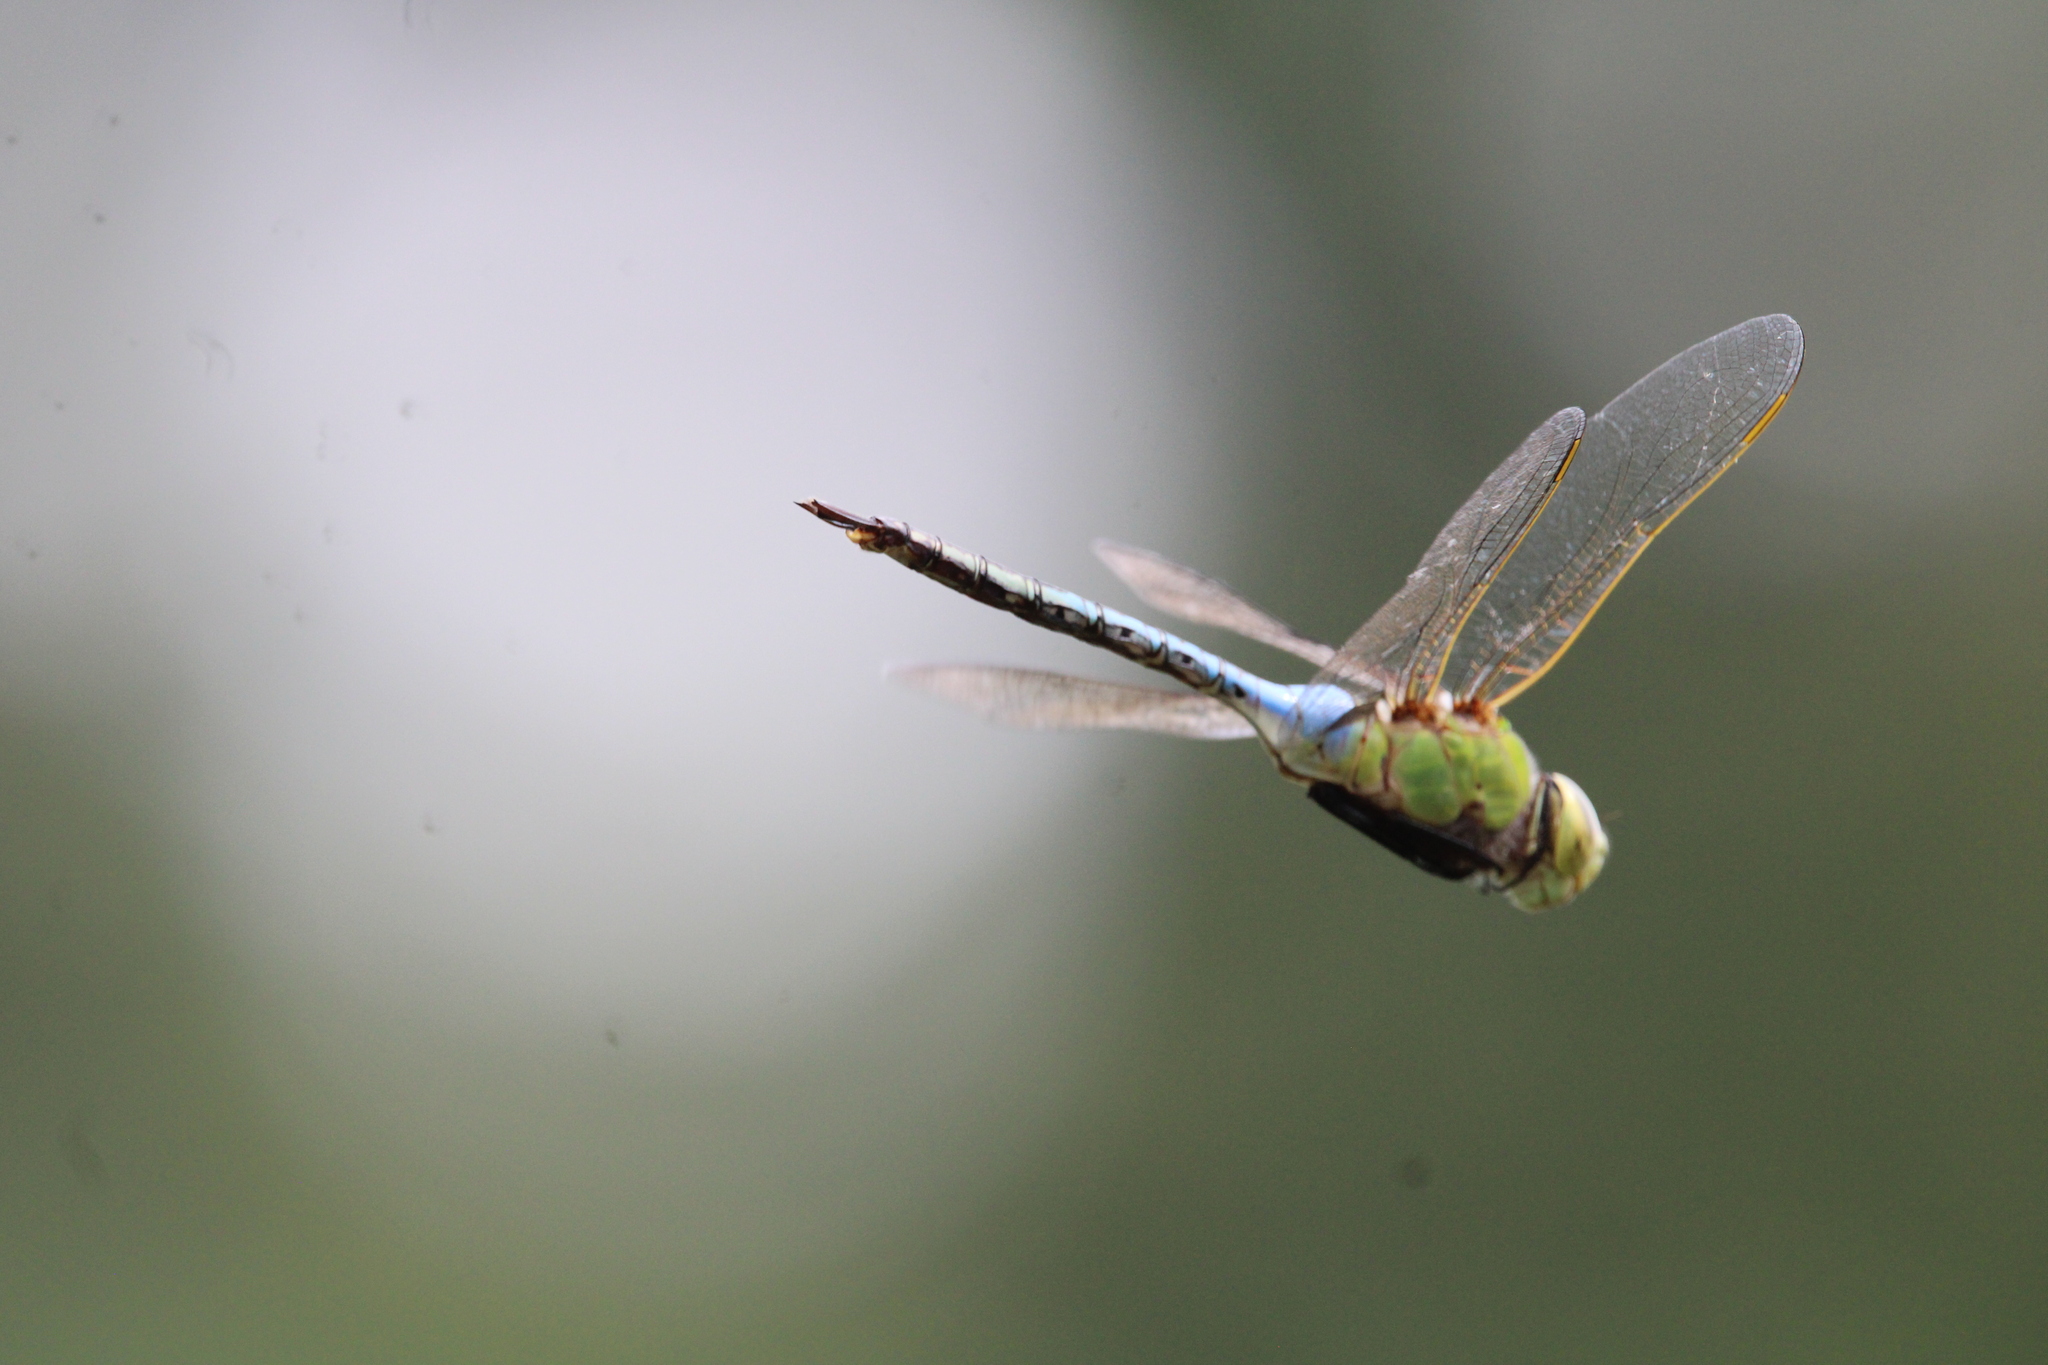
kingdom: Animalia
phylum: Arthropoda
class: Insecta
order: Odonata
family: Aeshnidae
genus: Anax
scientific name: Anax junius
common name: Common green darner
